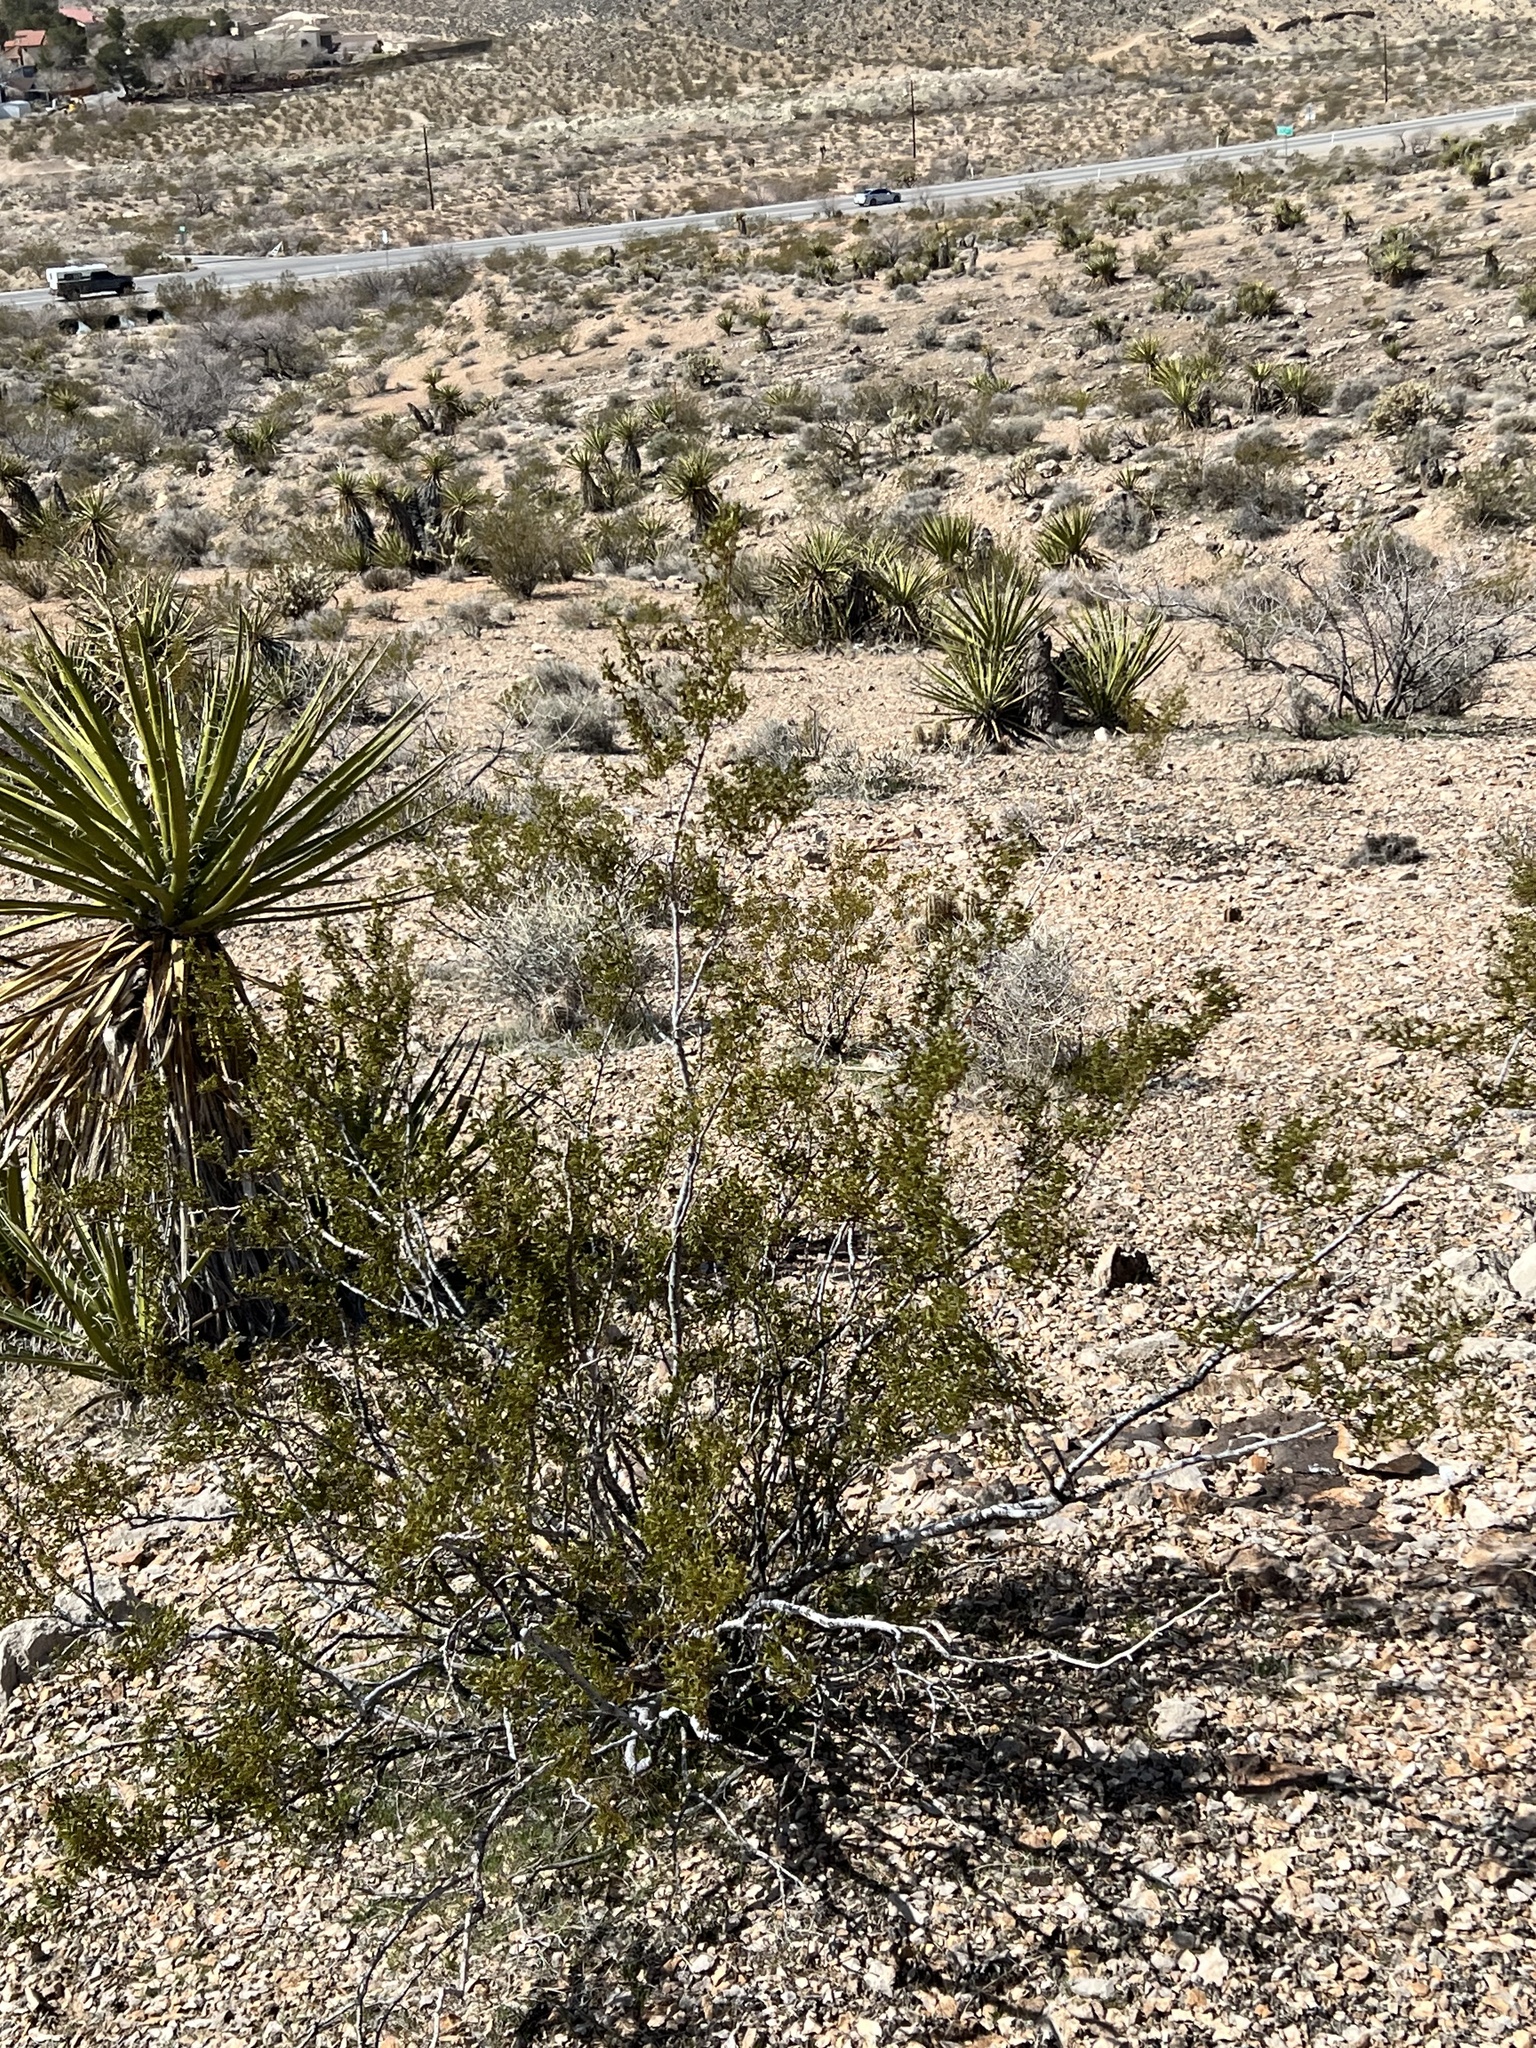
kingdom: Plantae
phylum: Tracheophyta
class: Magnoliopsida
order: Zygophyllales
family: Zygophyllaceae
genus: Larrea
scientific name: Larrea tridentata
